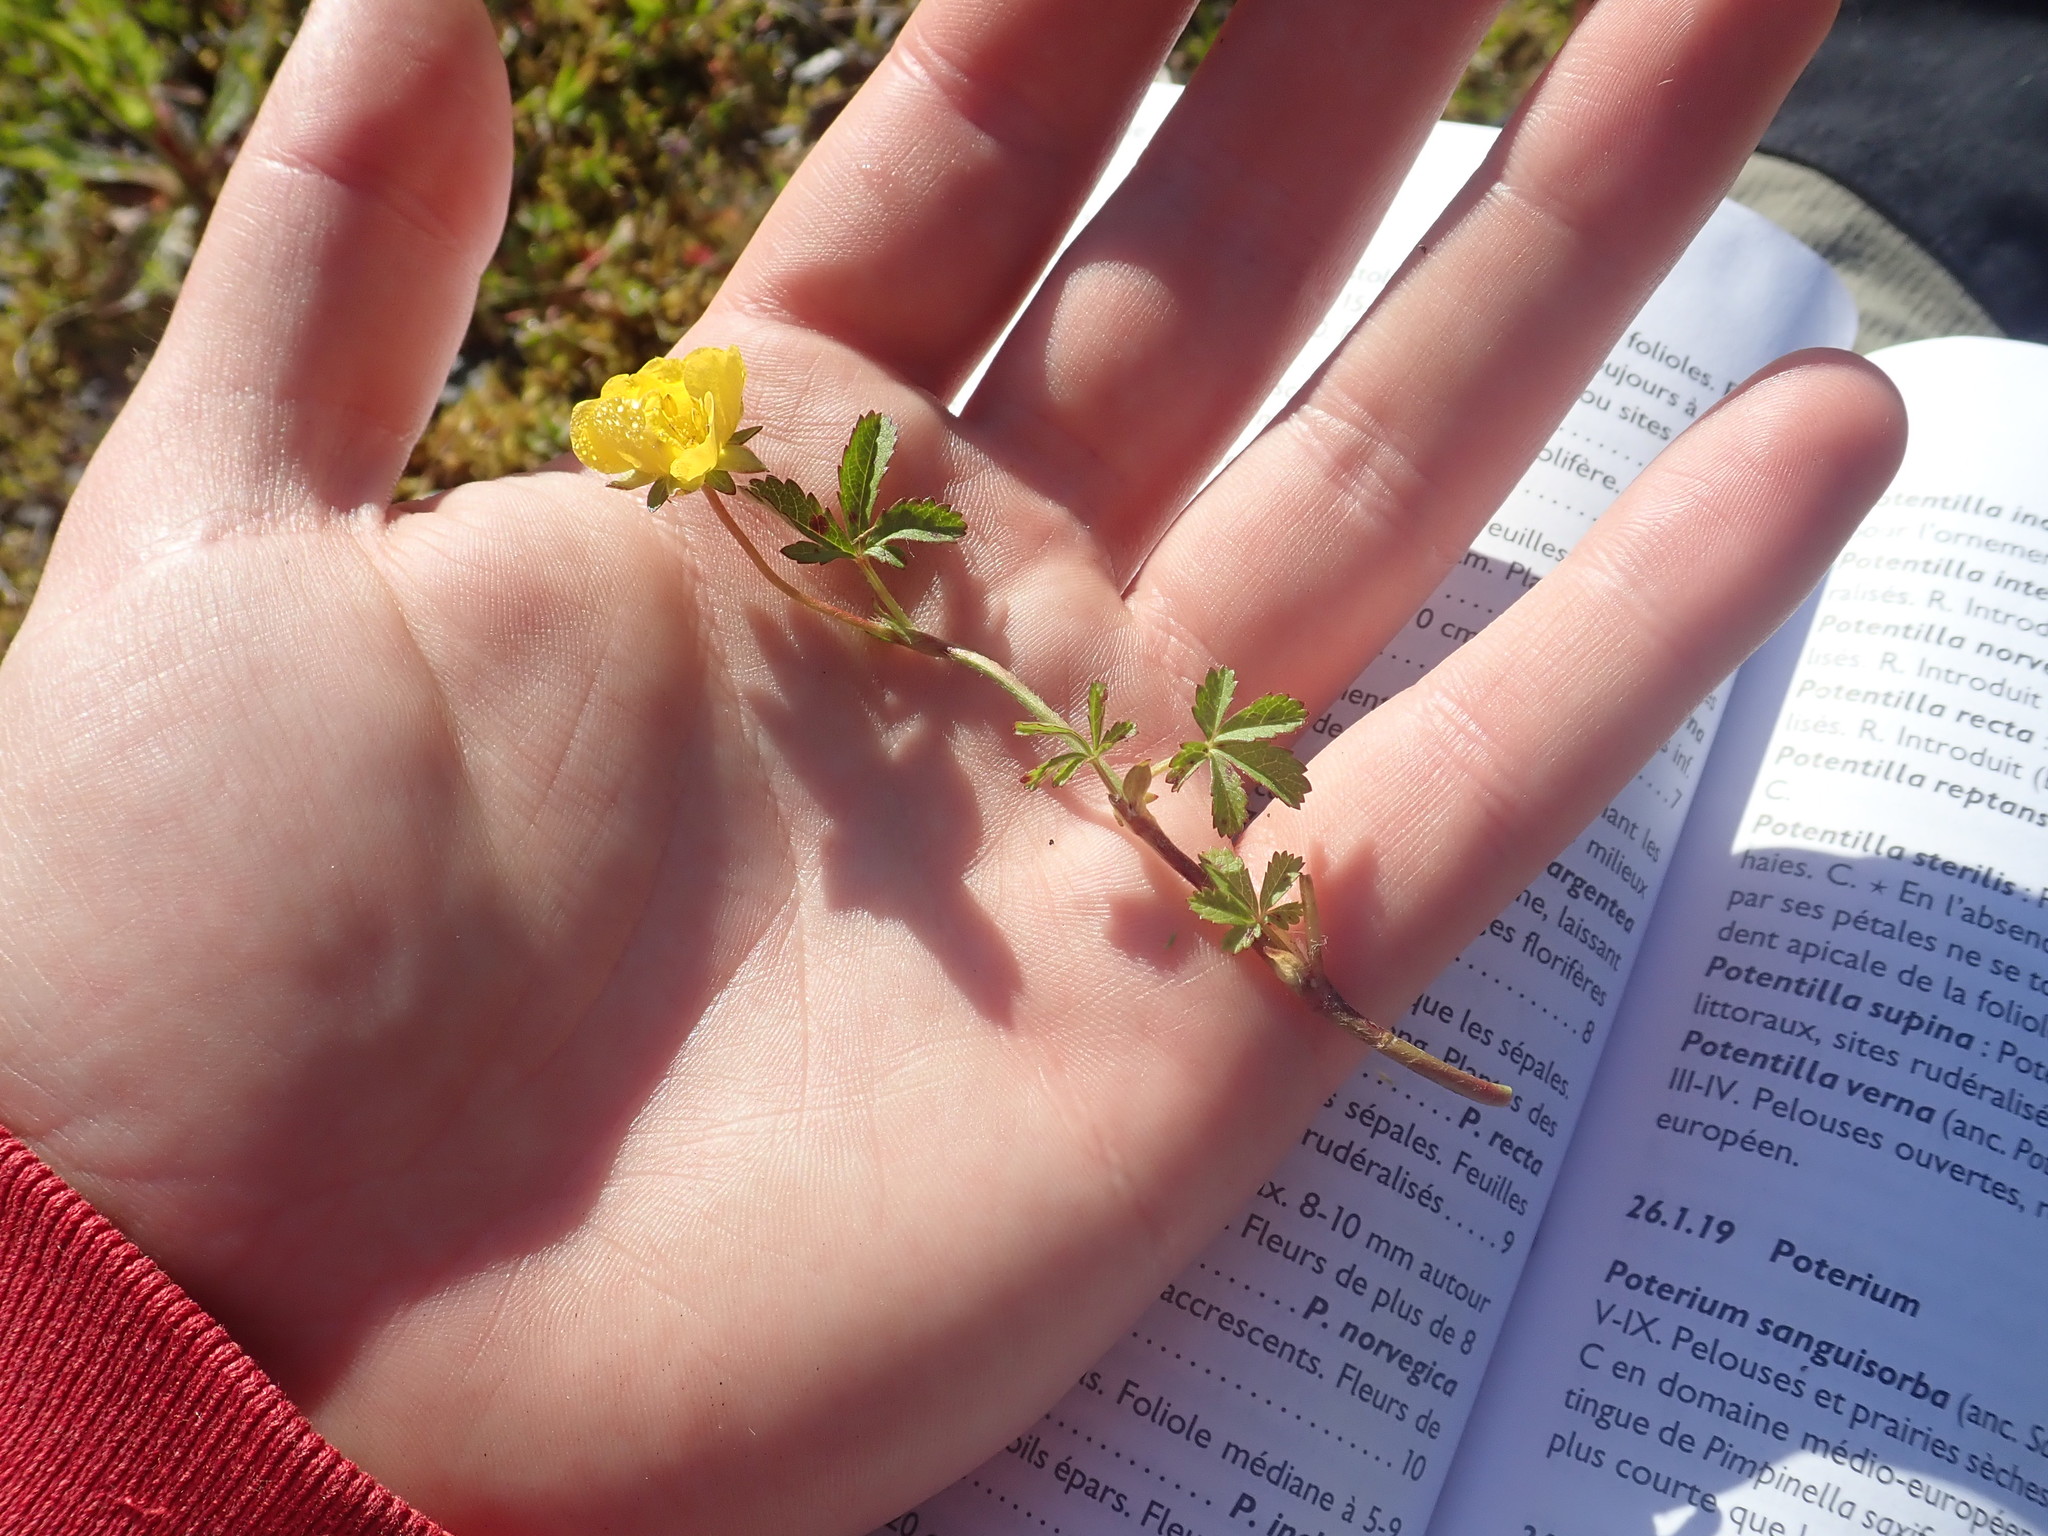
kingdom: Plantae
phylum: Tracheophyta
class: Magnoliopsida
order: Rosales
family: Rosaceae
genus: Potentilla
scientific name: Potentilla reptans
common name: Creeping cinquefoil
